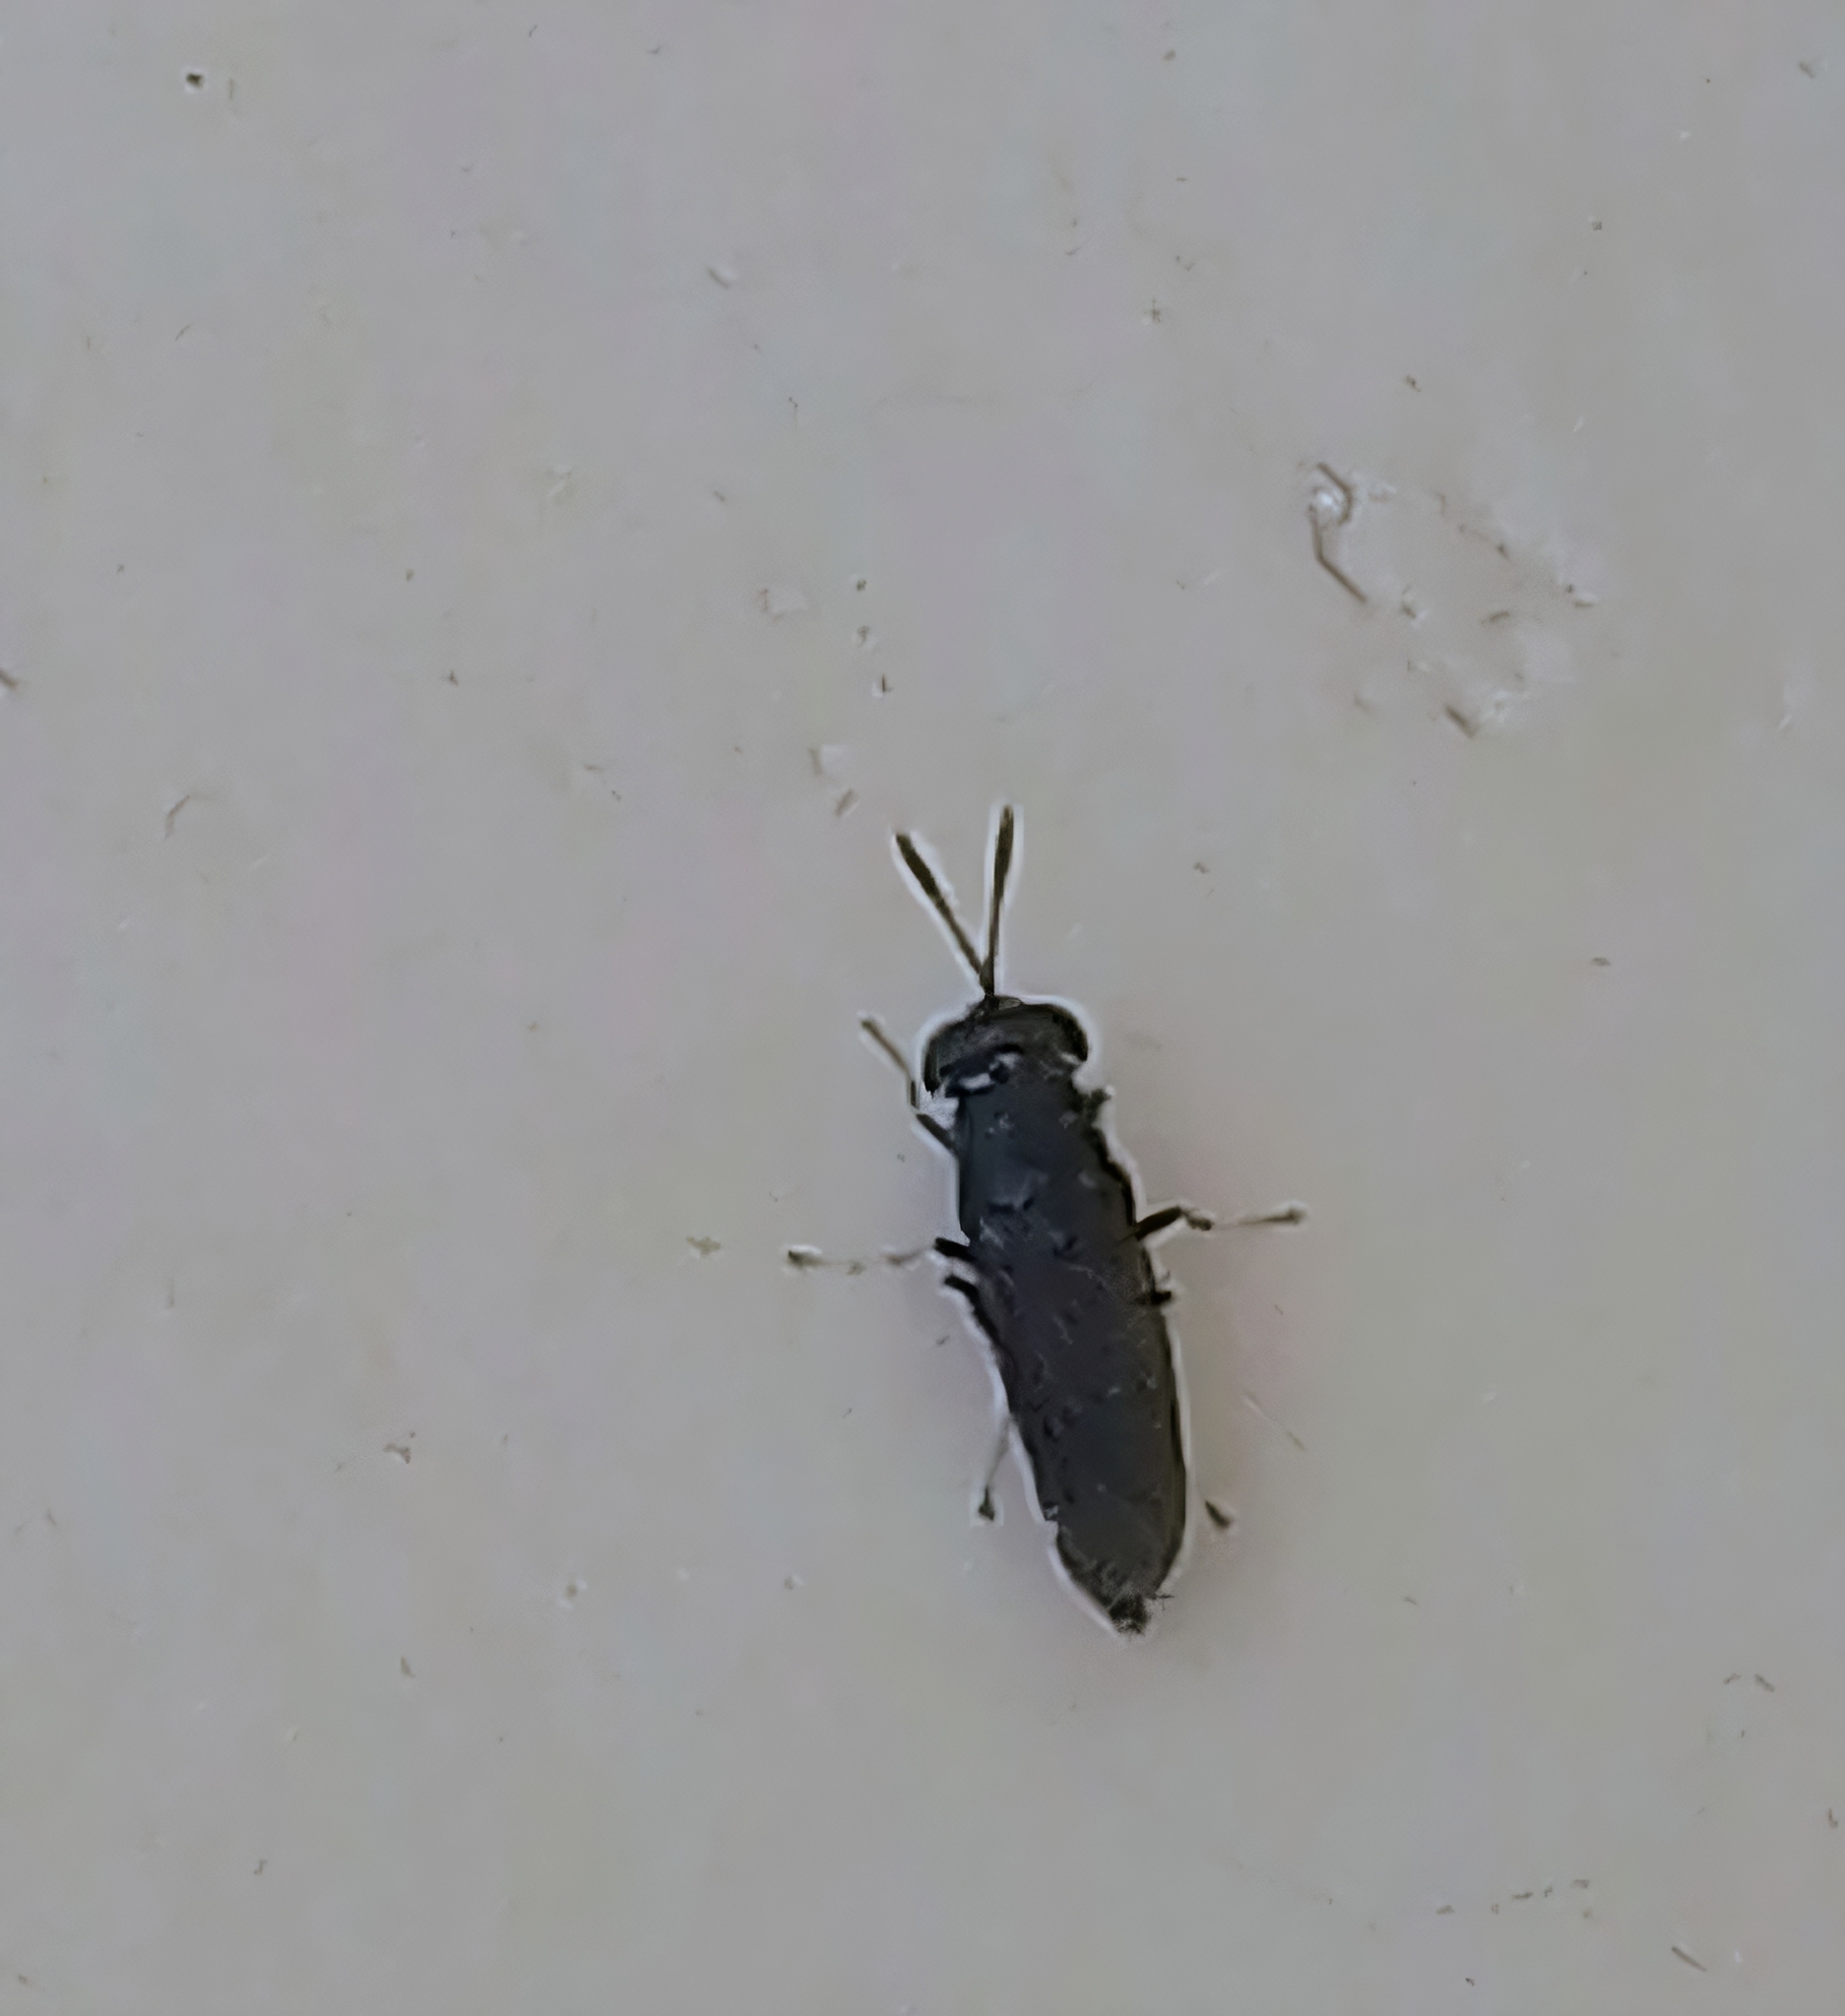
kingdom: Animalia
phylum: Arthropoda
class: Insecta
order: Diptera
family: Stratiomyidae
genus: Hermetia
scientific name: Hermetia illucens
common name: Black soldier fly
